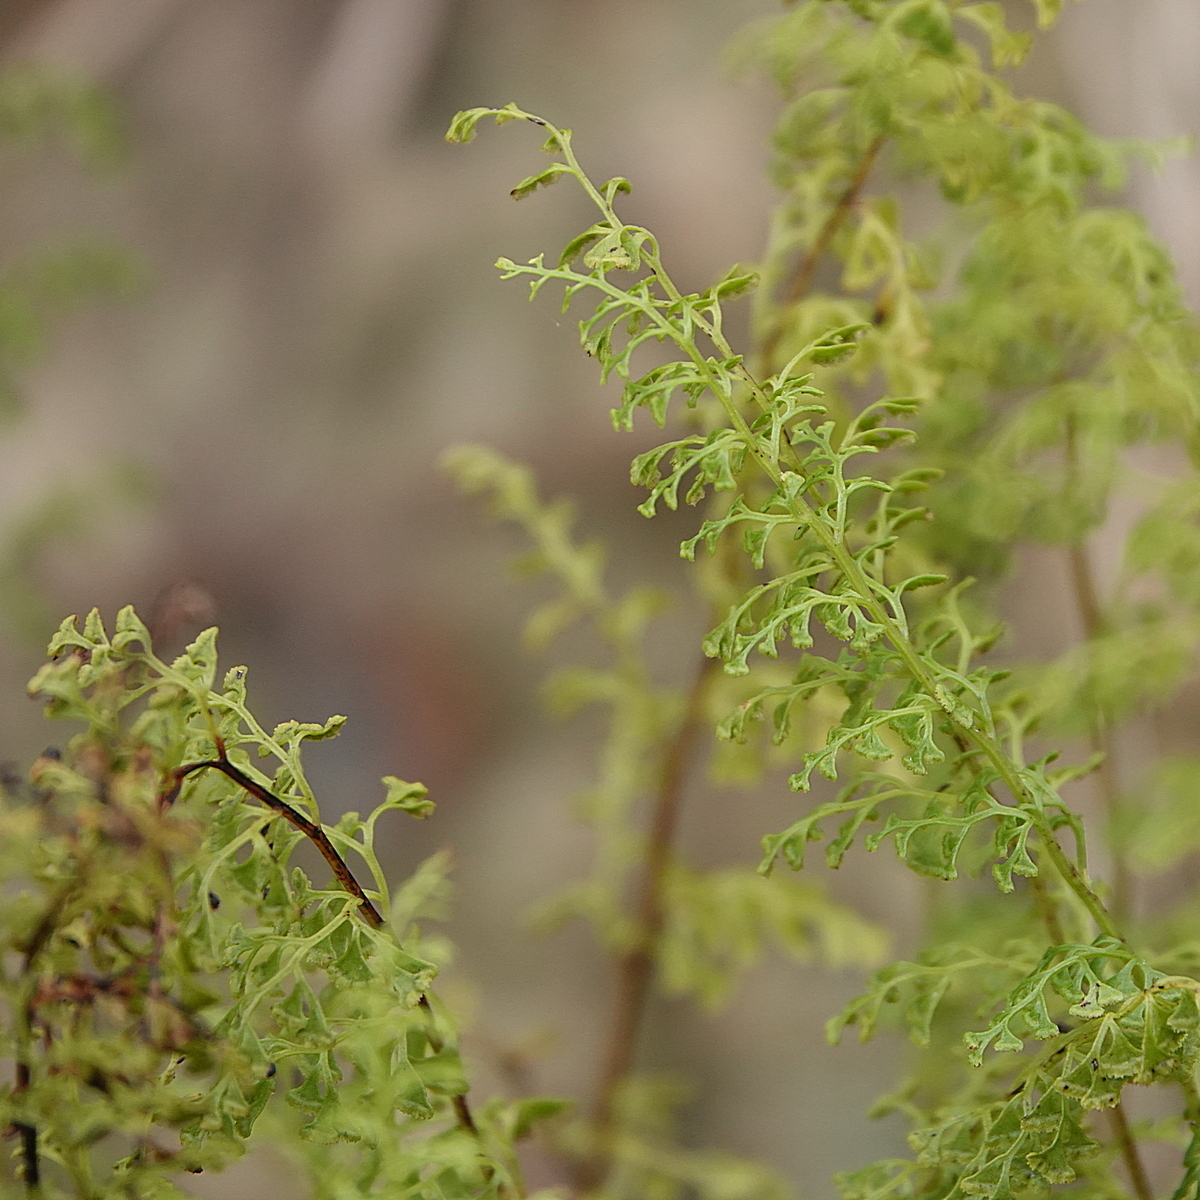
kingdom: Plantae
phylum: Tracheophyta
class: Polypodiopsida
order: Polypodiales
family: Lindsaeaceae
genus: Lindsaea
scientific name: Lindsaea microphylla
